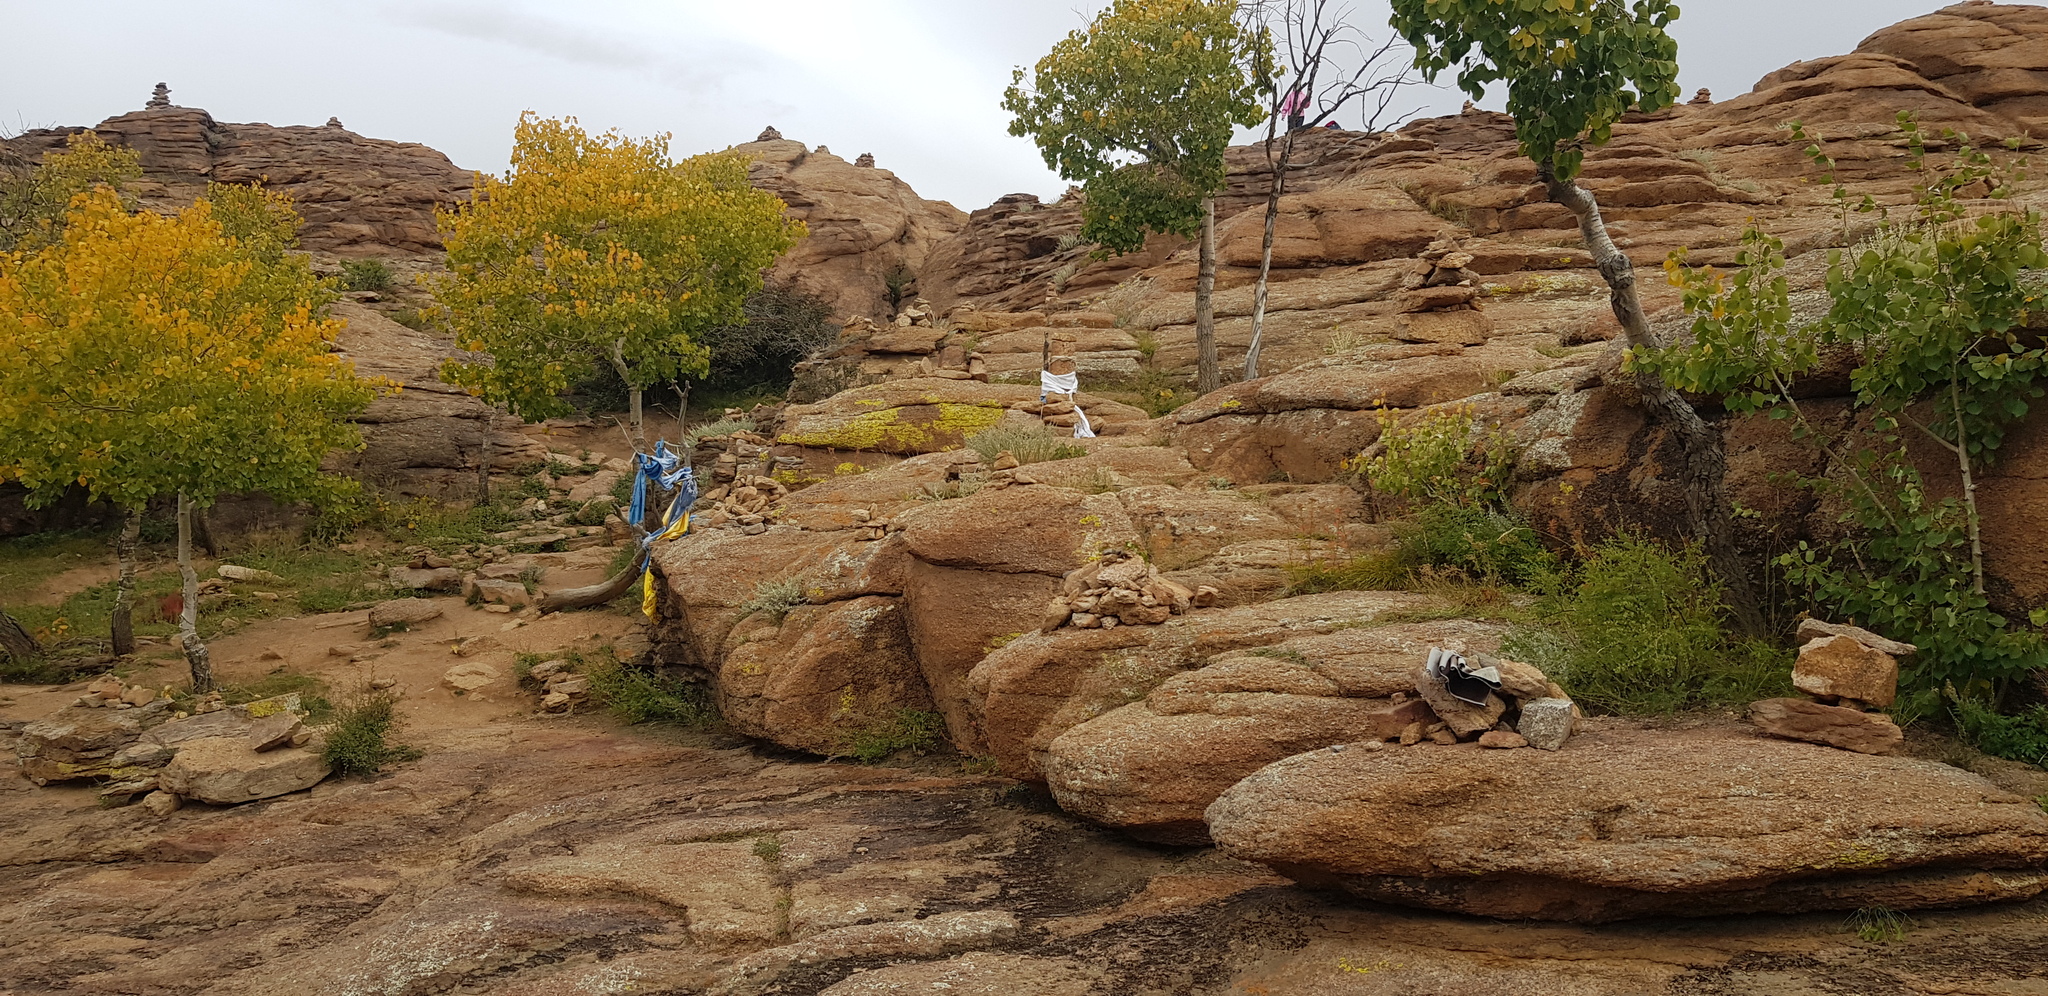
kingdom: Plantae
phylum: Tracheophyta
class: Magnoliopsida
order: Malpighiales
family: Salicaceae
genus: Populus
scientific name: Populus tremula
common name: European aspen
